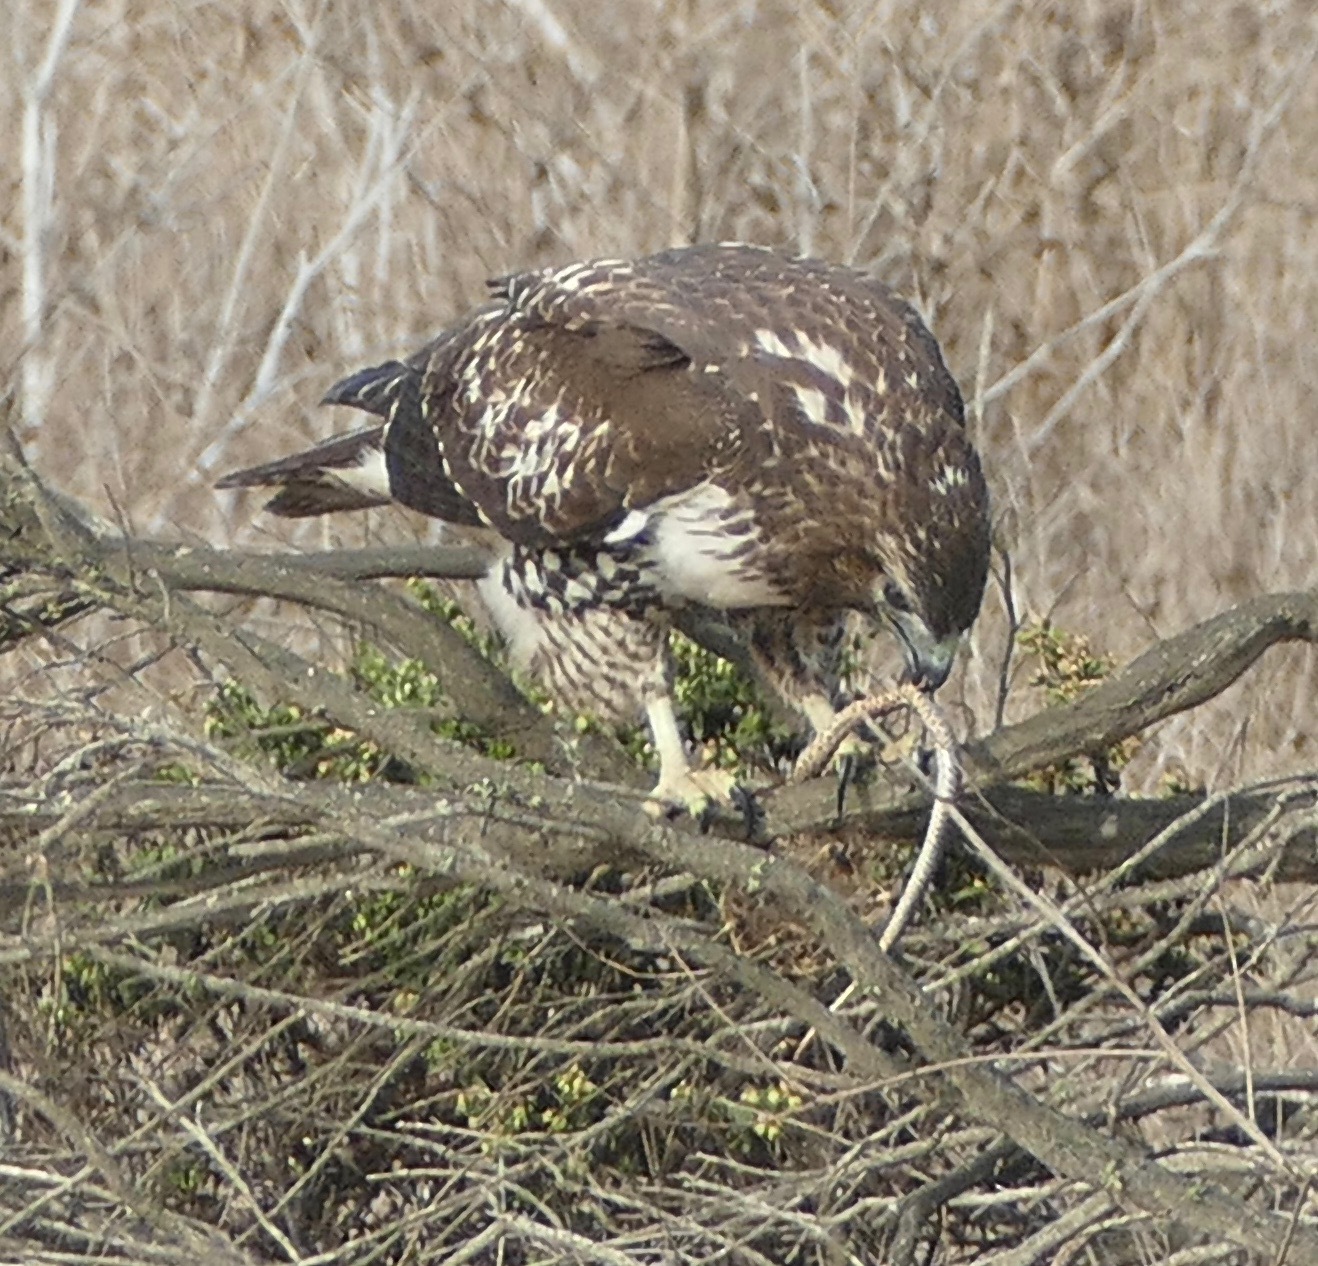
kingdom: Animalia
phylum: Chordata
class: Aves
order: Accipitriformes
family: Accipitridae
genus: Buteo
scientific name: Buteo jamaicensis
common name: Red-tailed hawk
